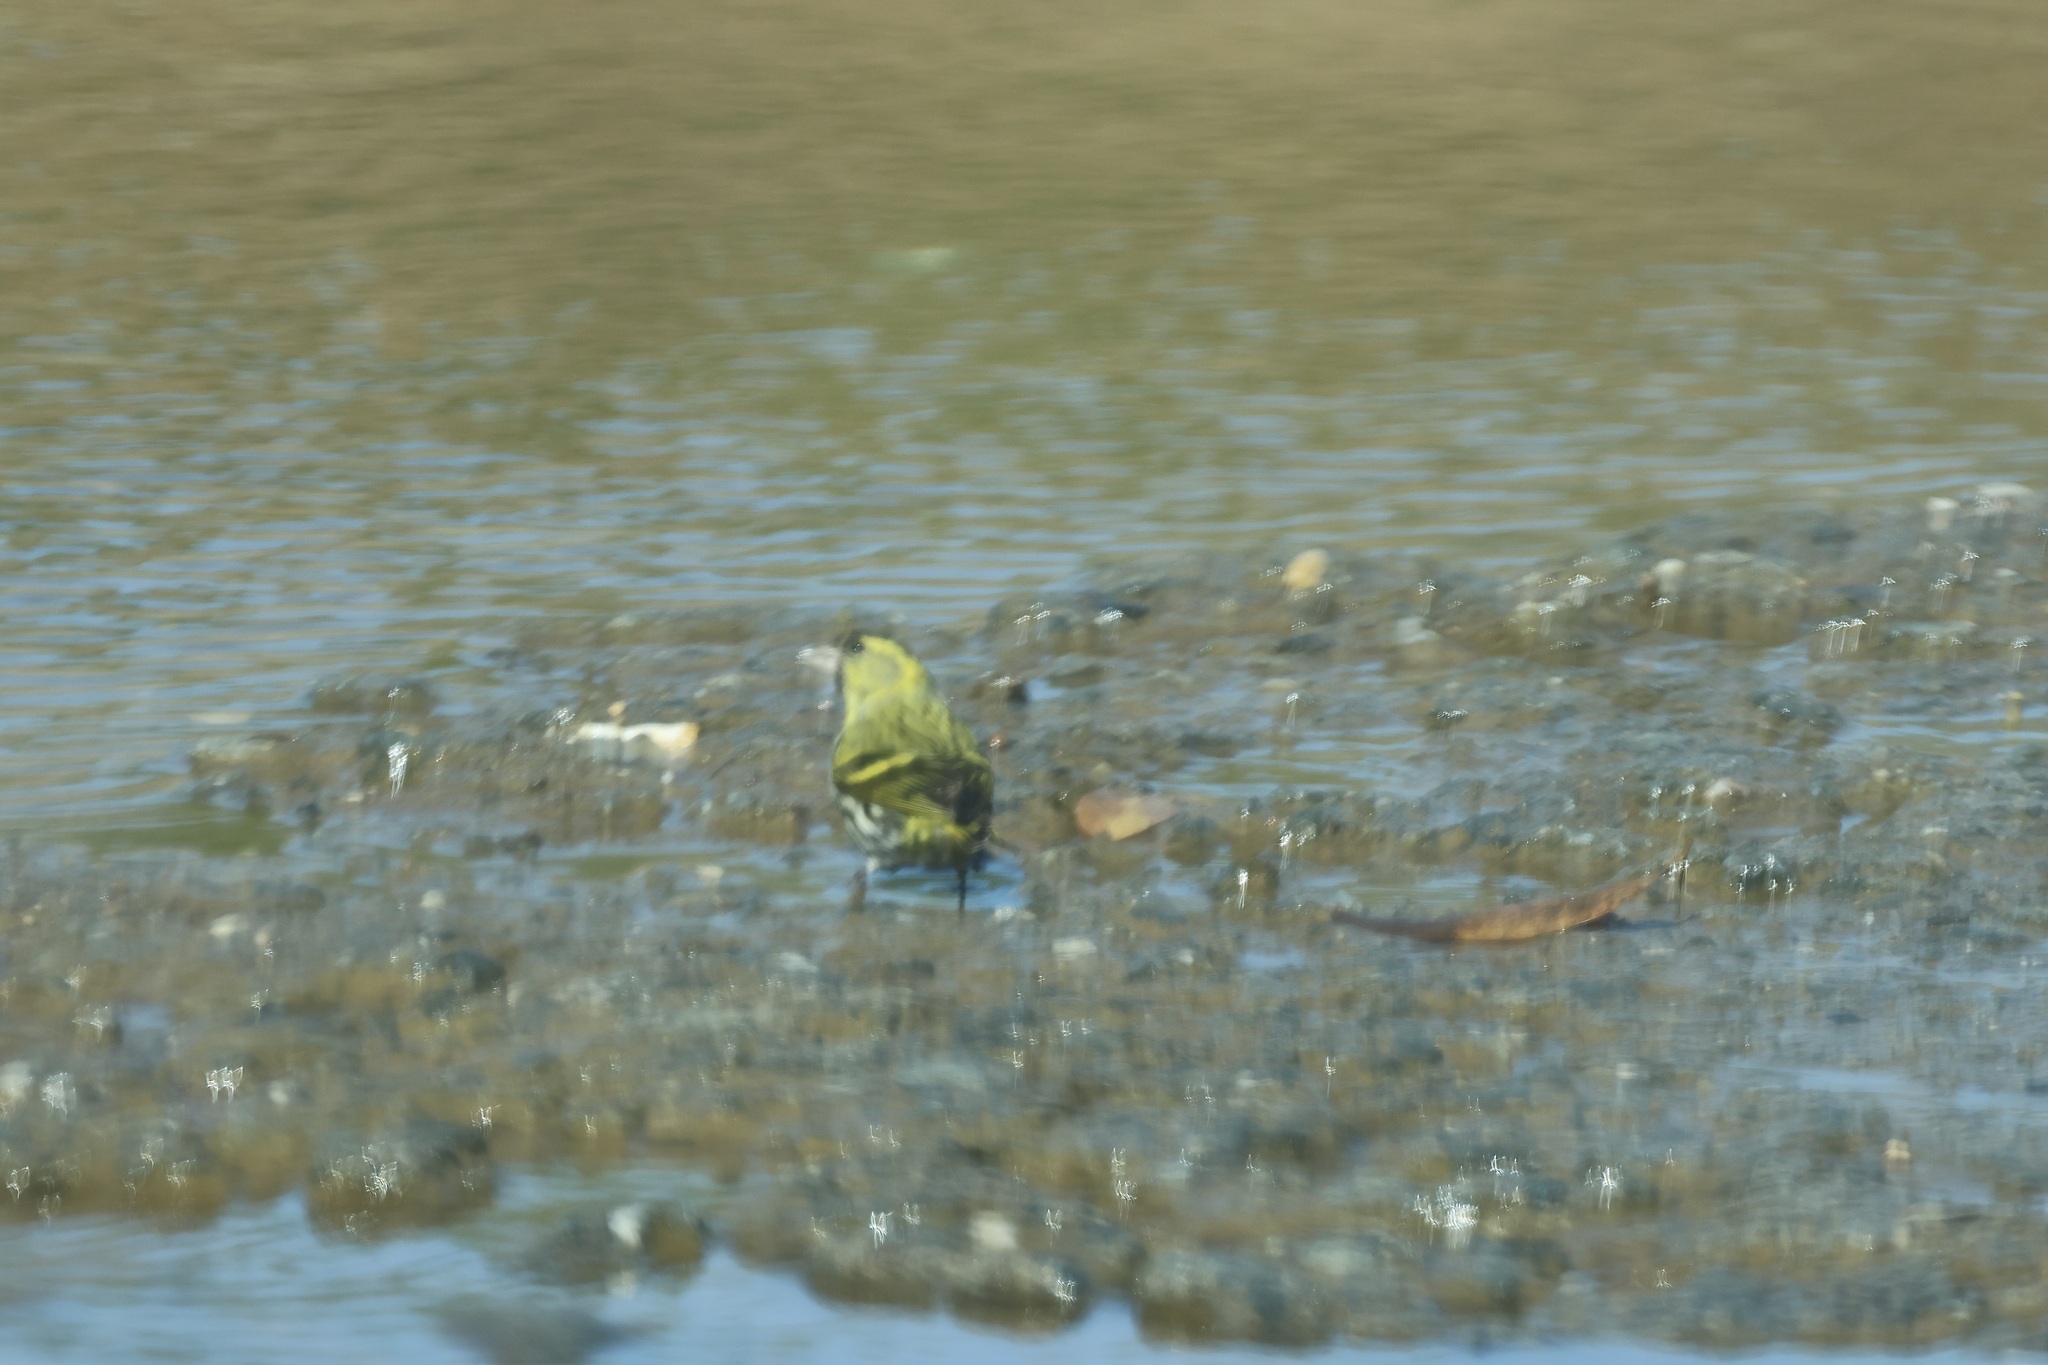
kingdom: Animalia
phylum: Chordata
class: Aves
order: Passeriformes
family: Fringillidae
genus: Spinus
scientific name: Spinus spinus
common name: Eurasian siskin
